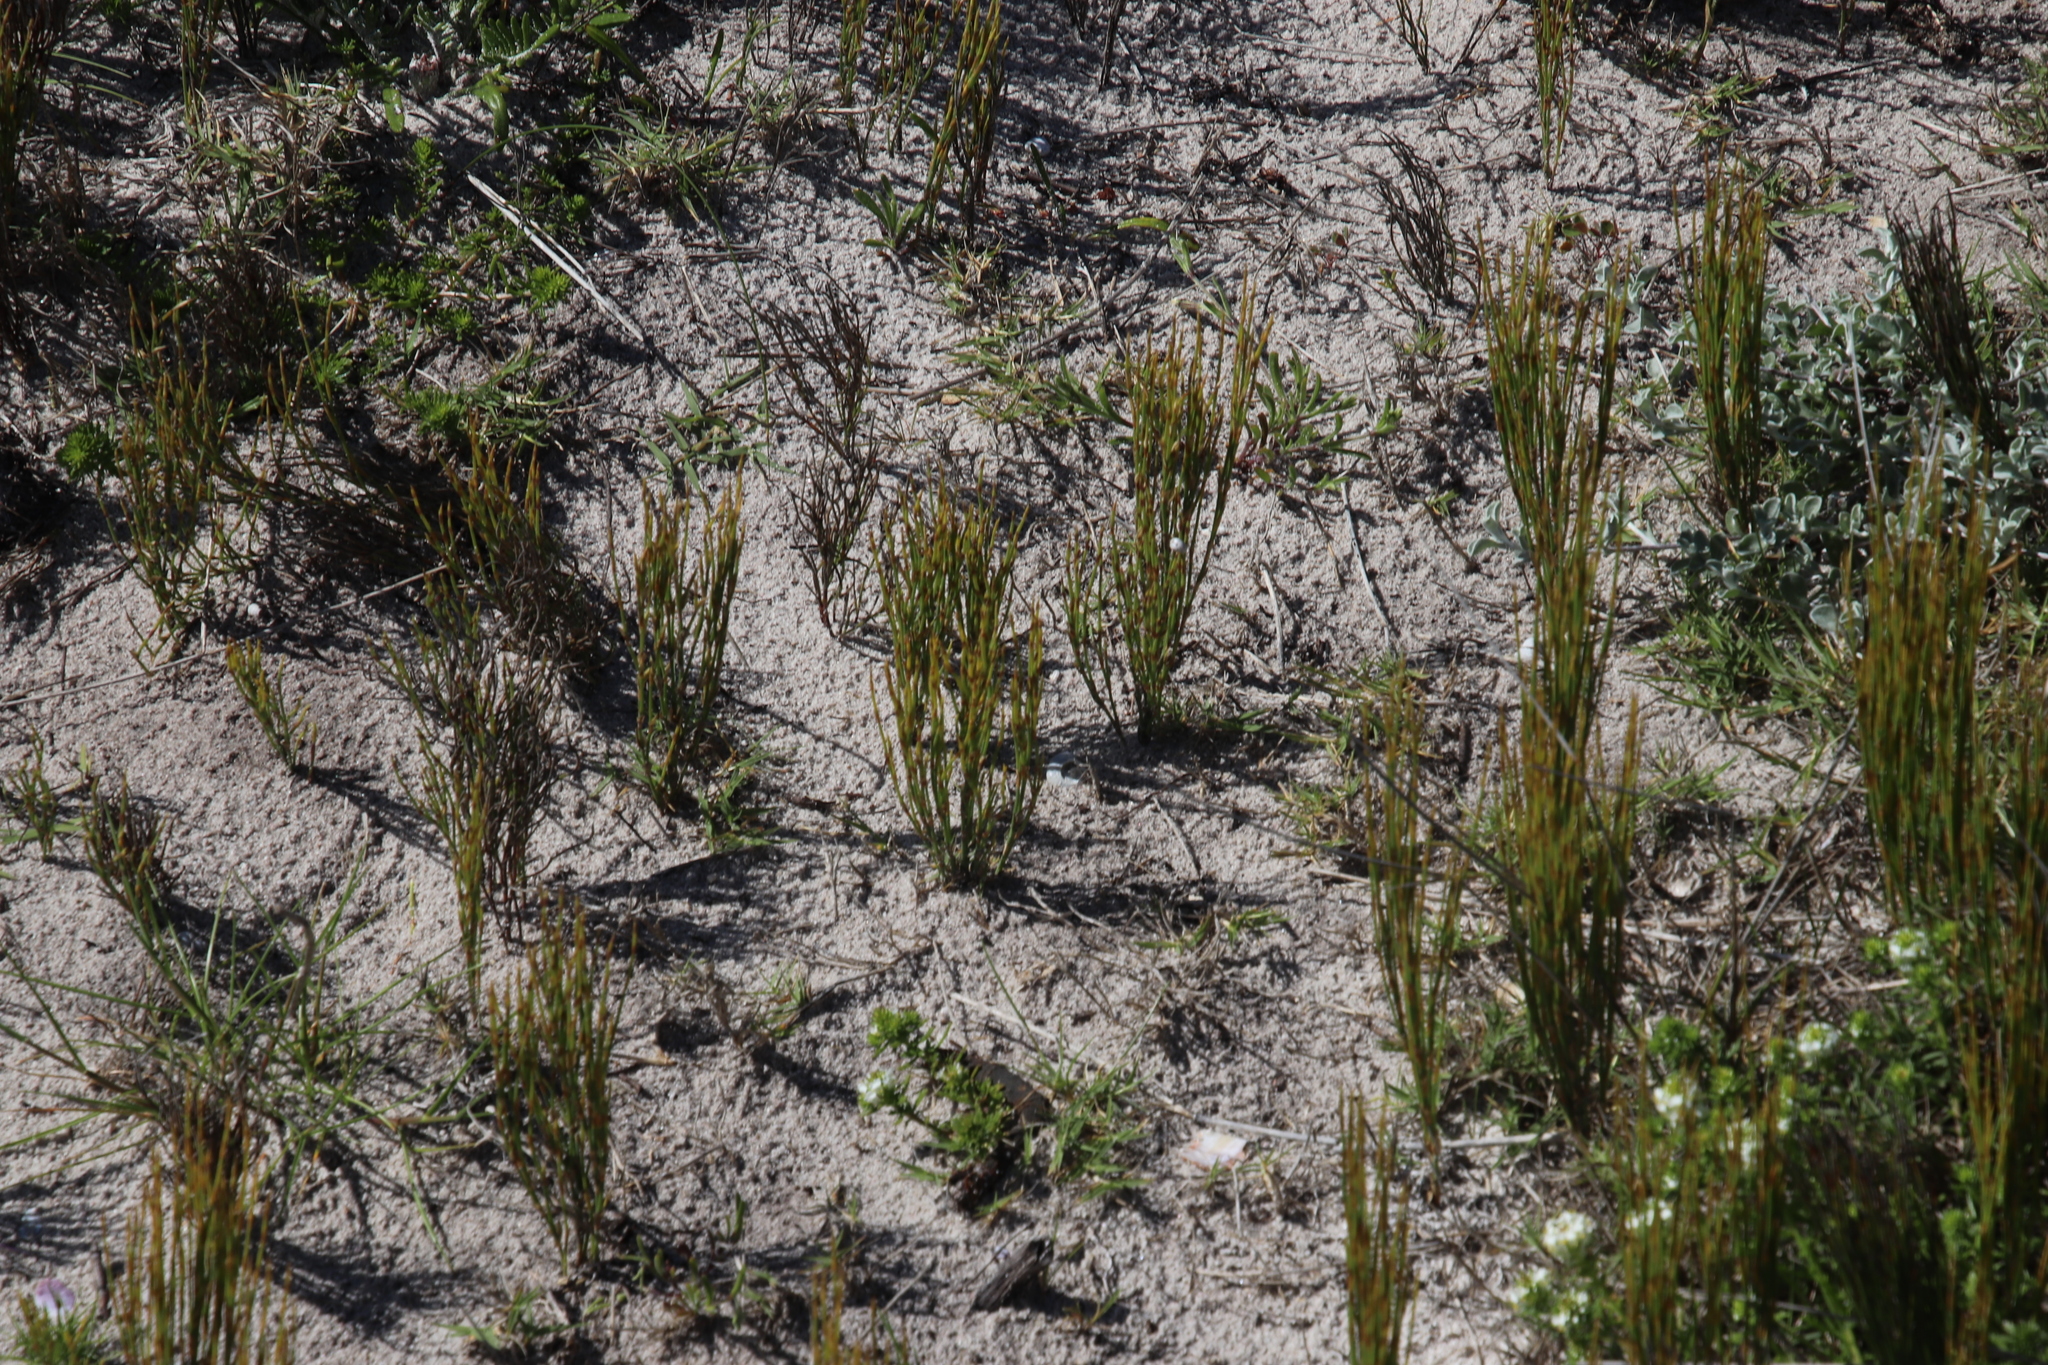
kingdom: Plantae
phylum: Tracheophyta
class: Liliopsida
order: Poales
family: Restionaceae
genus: Restio
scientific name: Restio eleocharis
